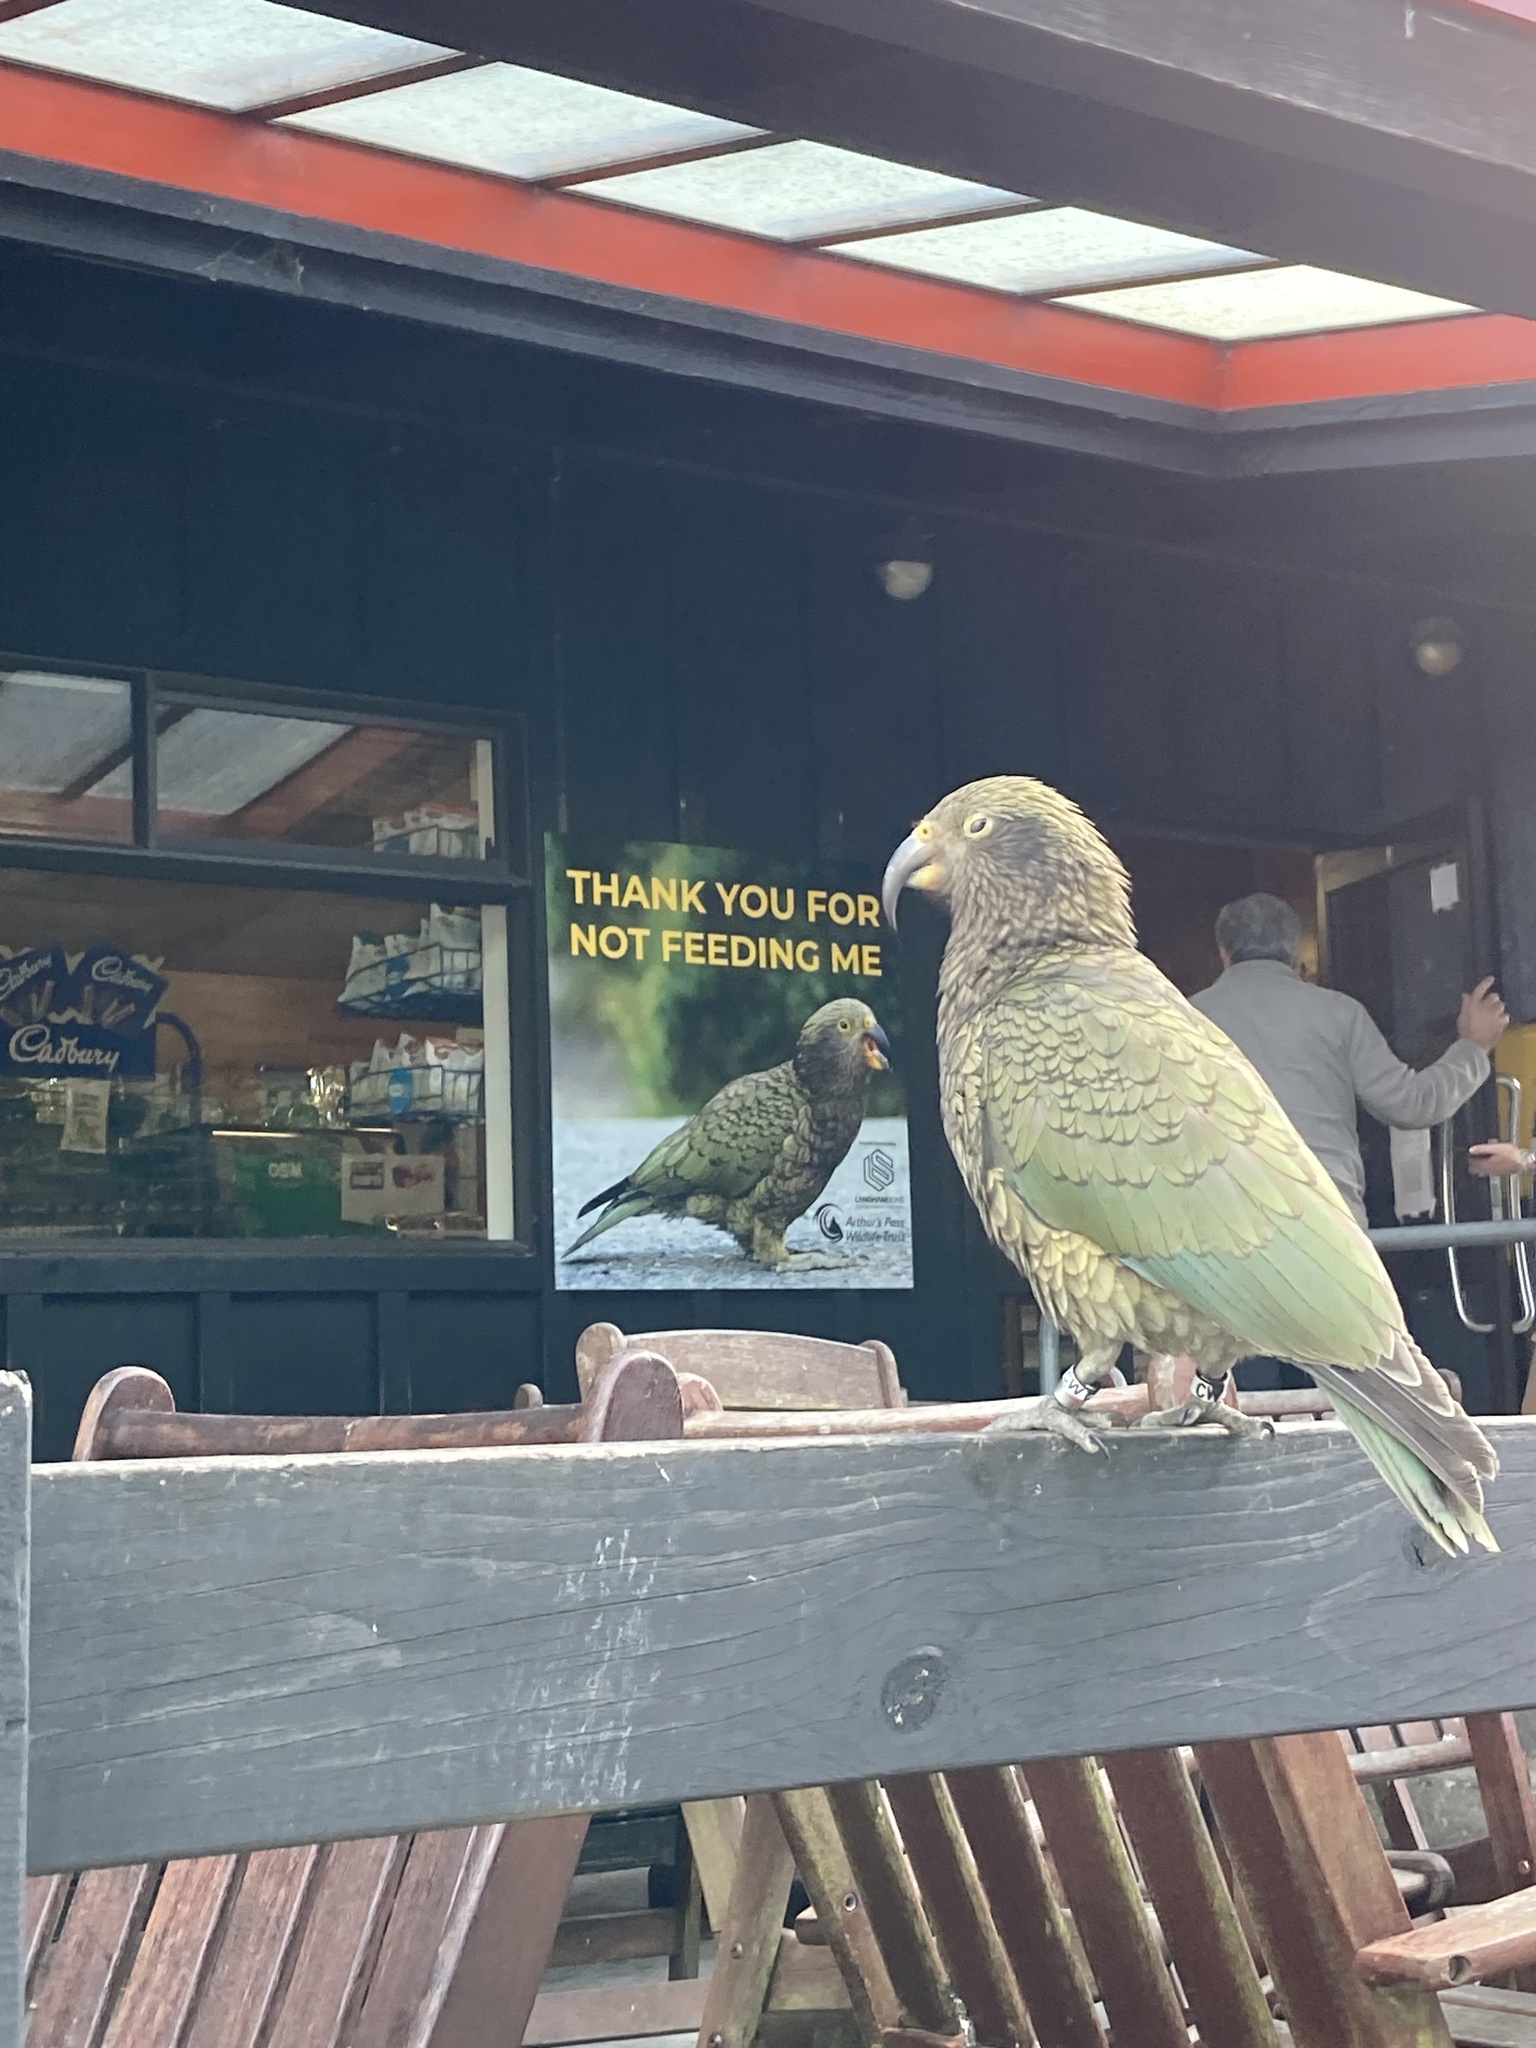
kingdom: Animalia
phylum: Chordata
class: Aves
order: Psittaciformes
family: Psittacidae
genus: Nestor
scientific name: Nestor notabilis
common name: Kea
